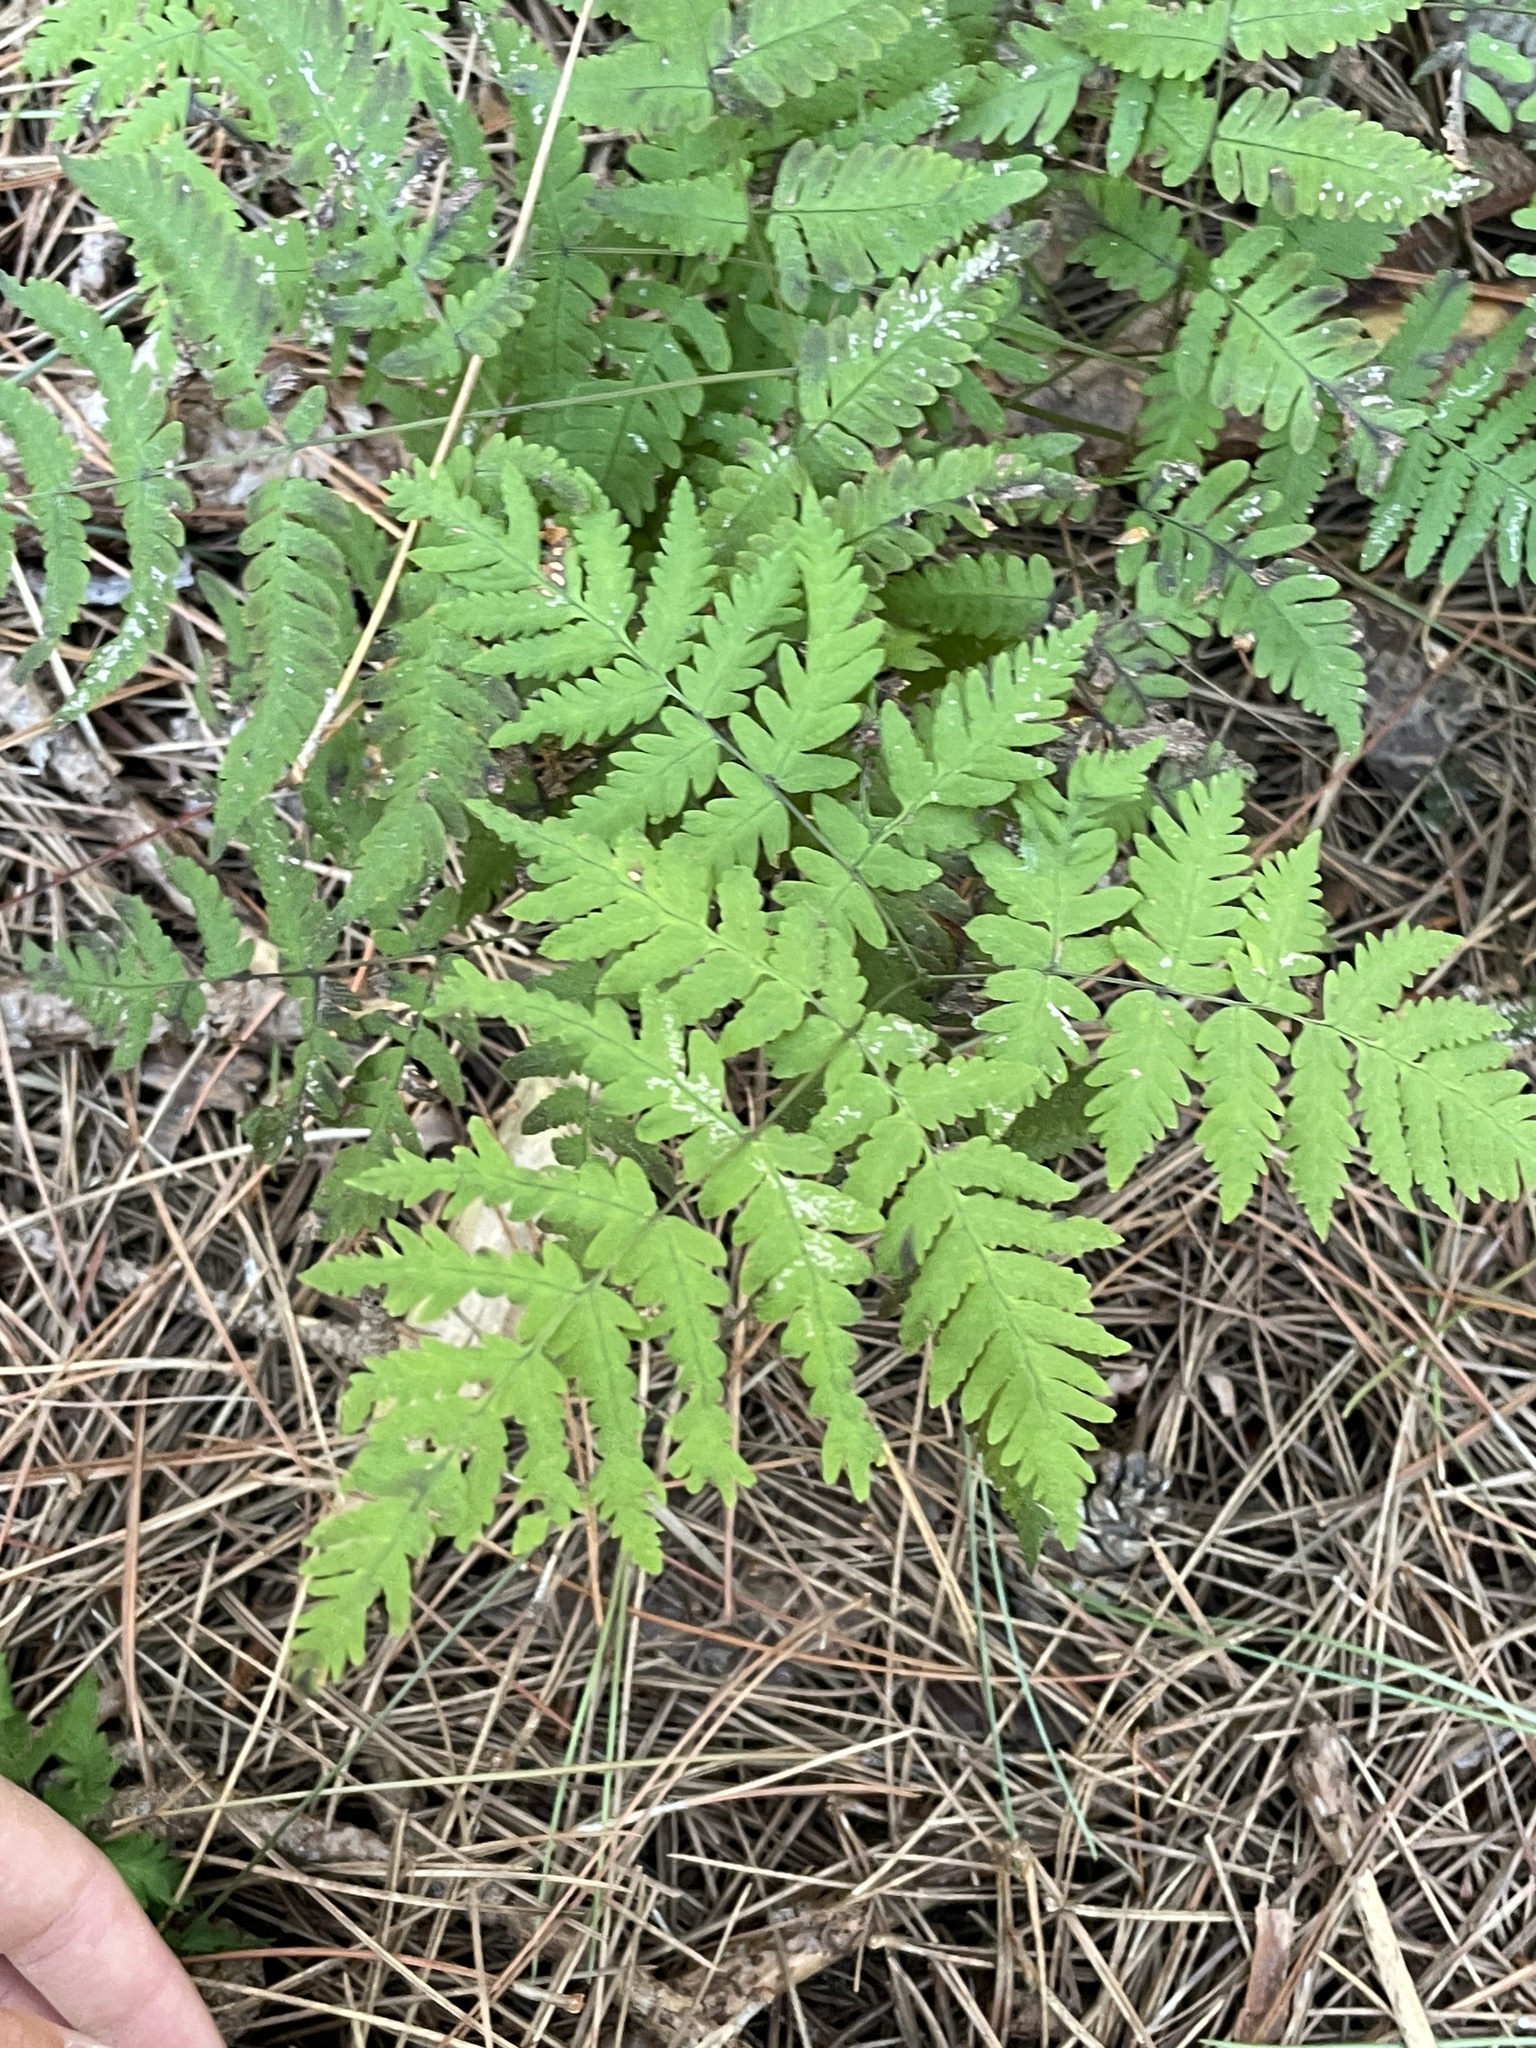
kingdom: Plantae
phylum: Tracheophyta
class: Polypodiopsida
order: Polypodiales
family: Cystopteridaceae
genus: Gymnocarpium
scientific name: Gymnocarpium dryopteris
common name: Oak fern
